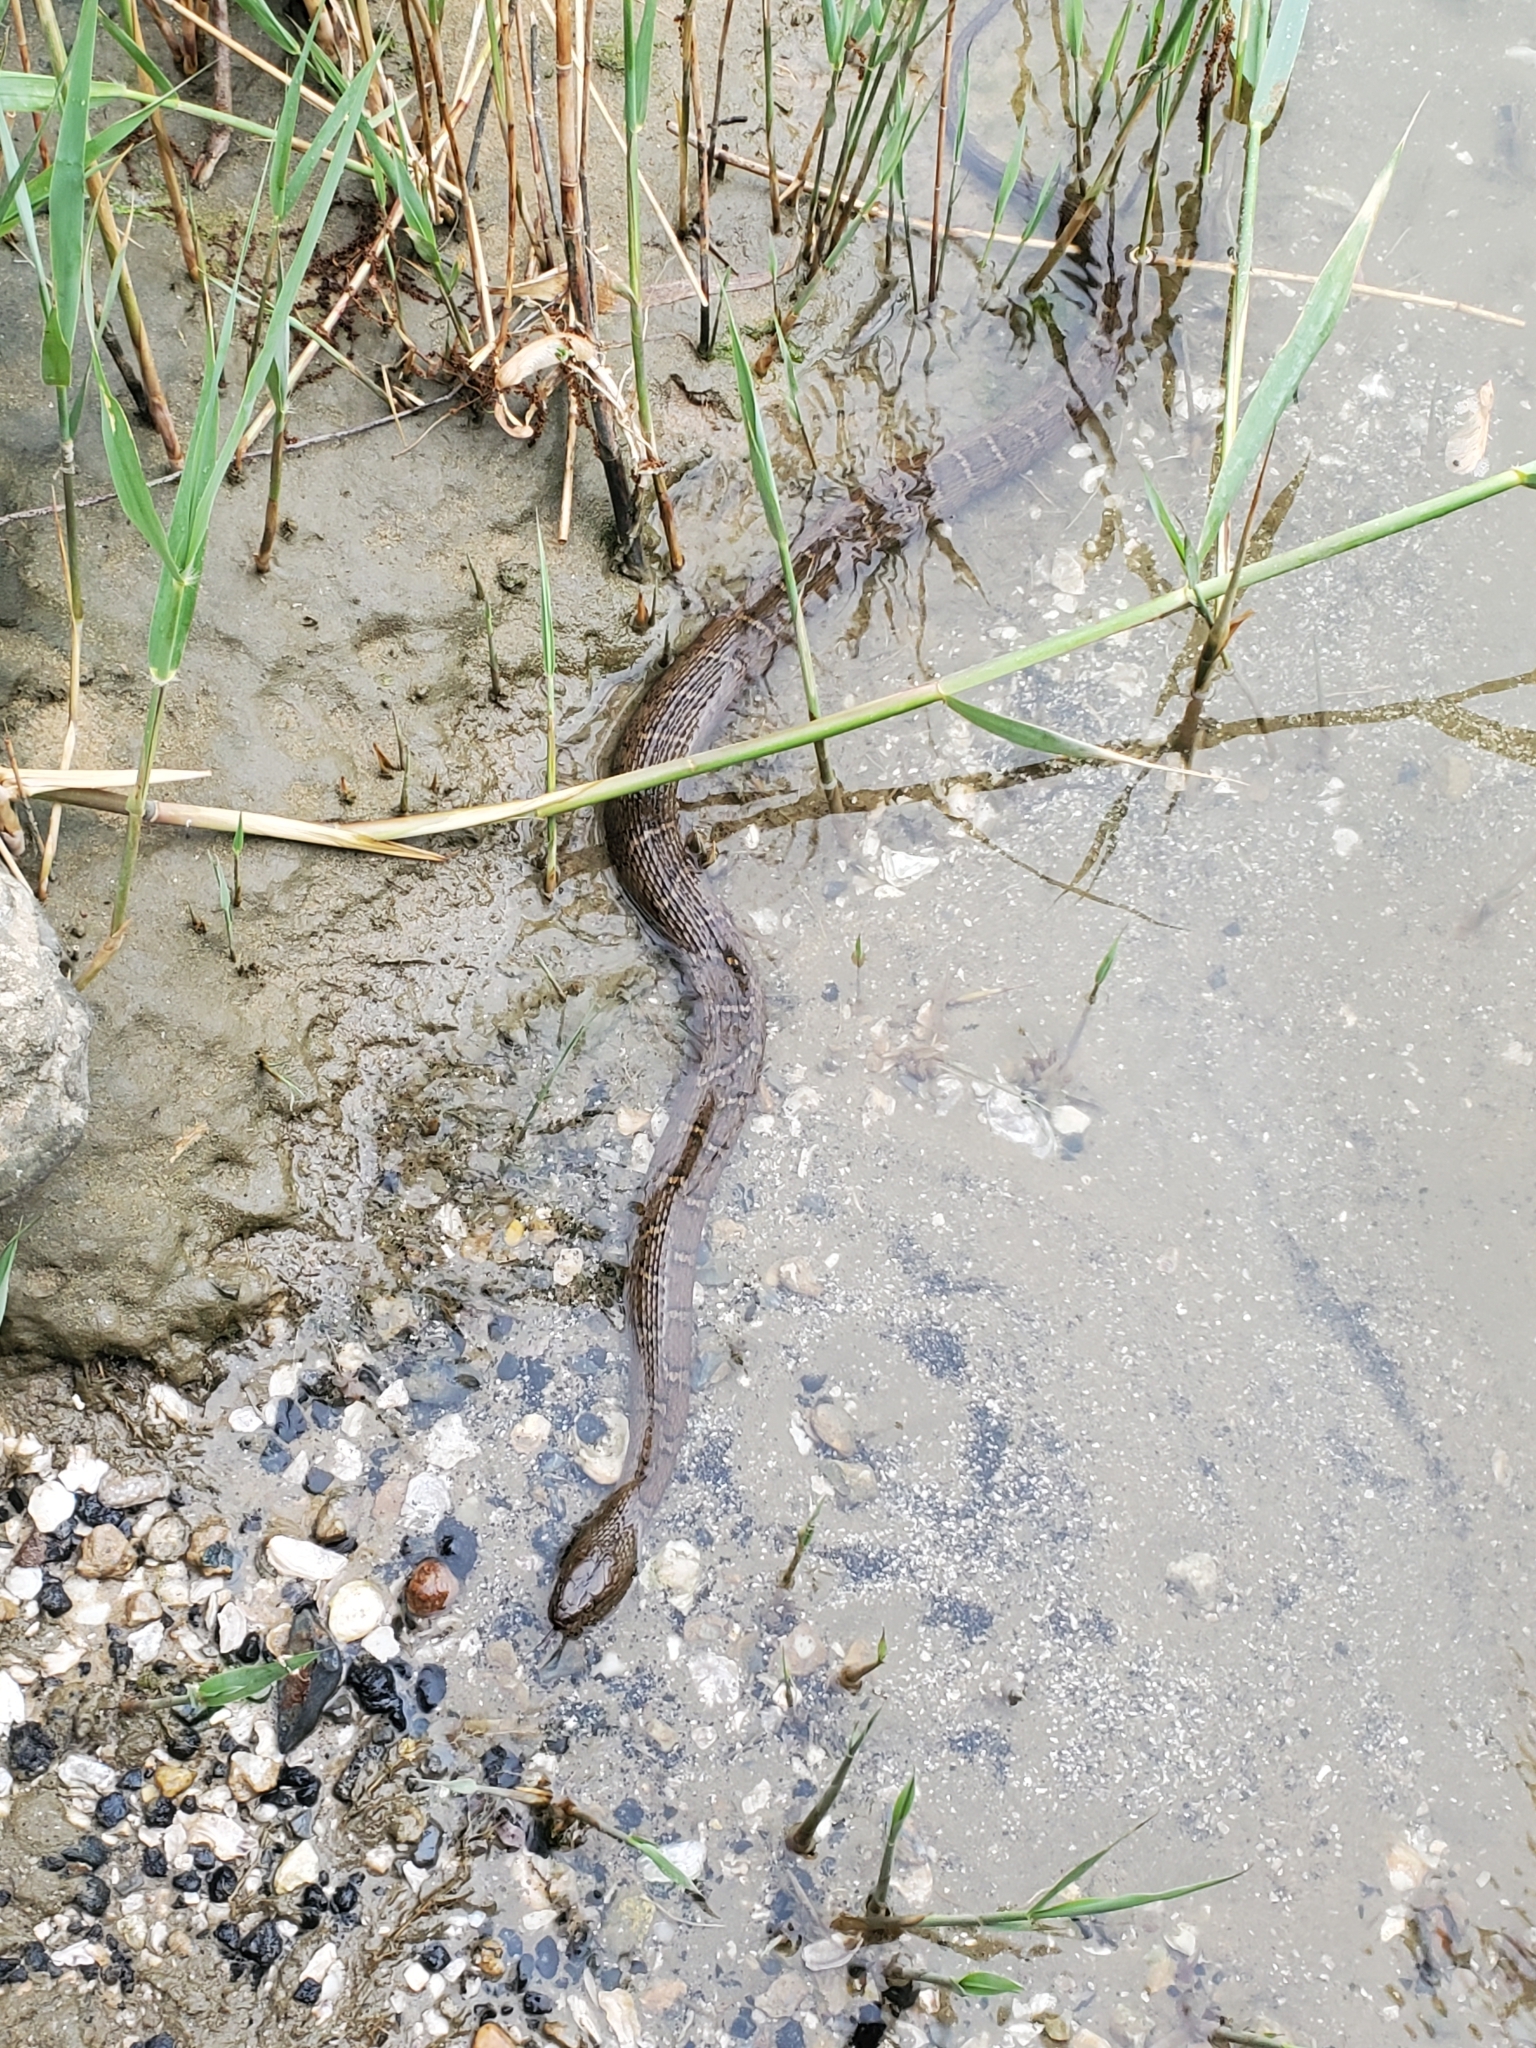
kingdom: Animalia
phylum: Chordata
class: Squamata
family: Colubridae
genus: Nerodia
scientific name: Nerodia sipedon
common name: Northern water snake
